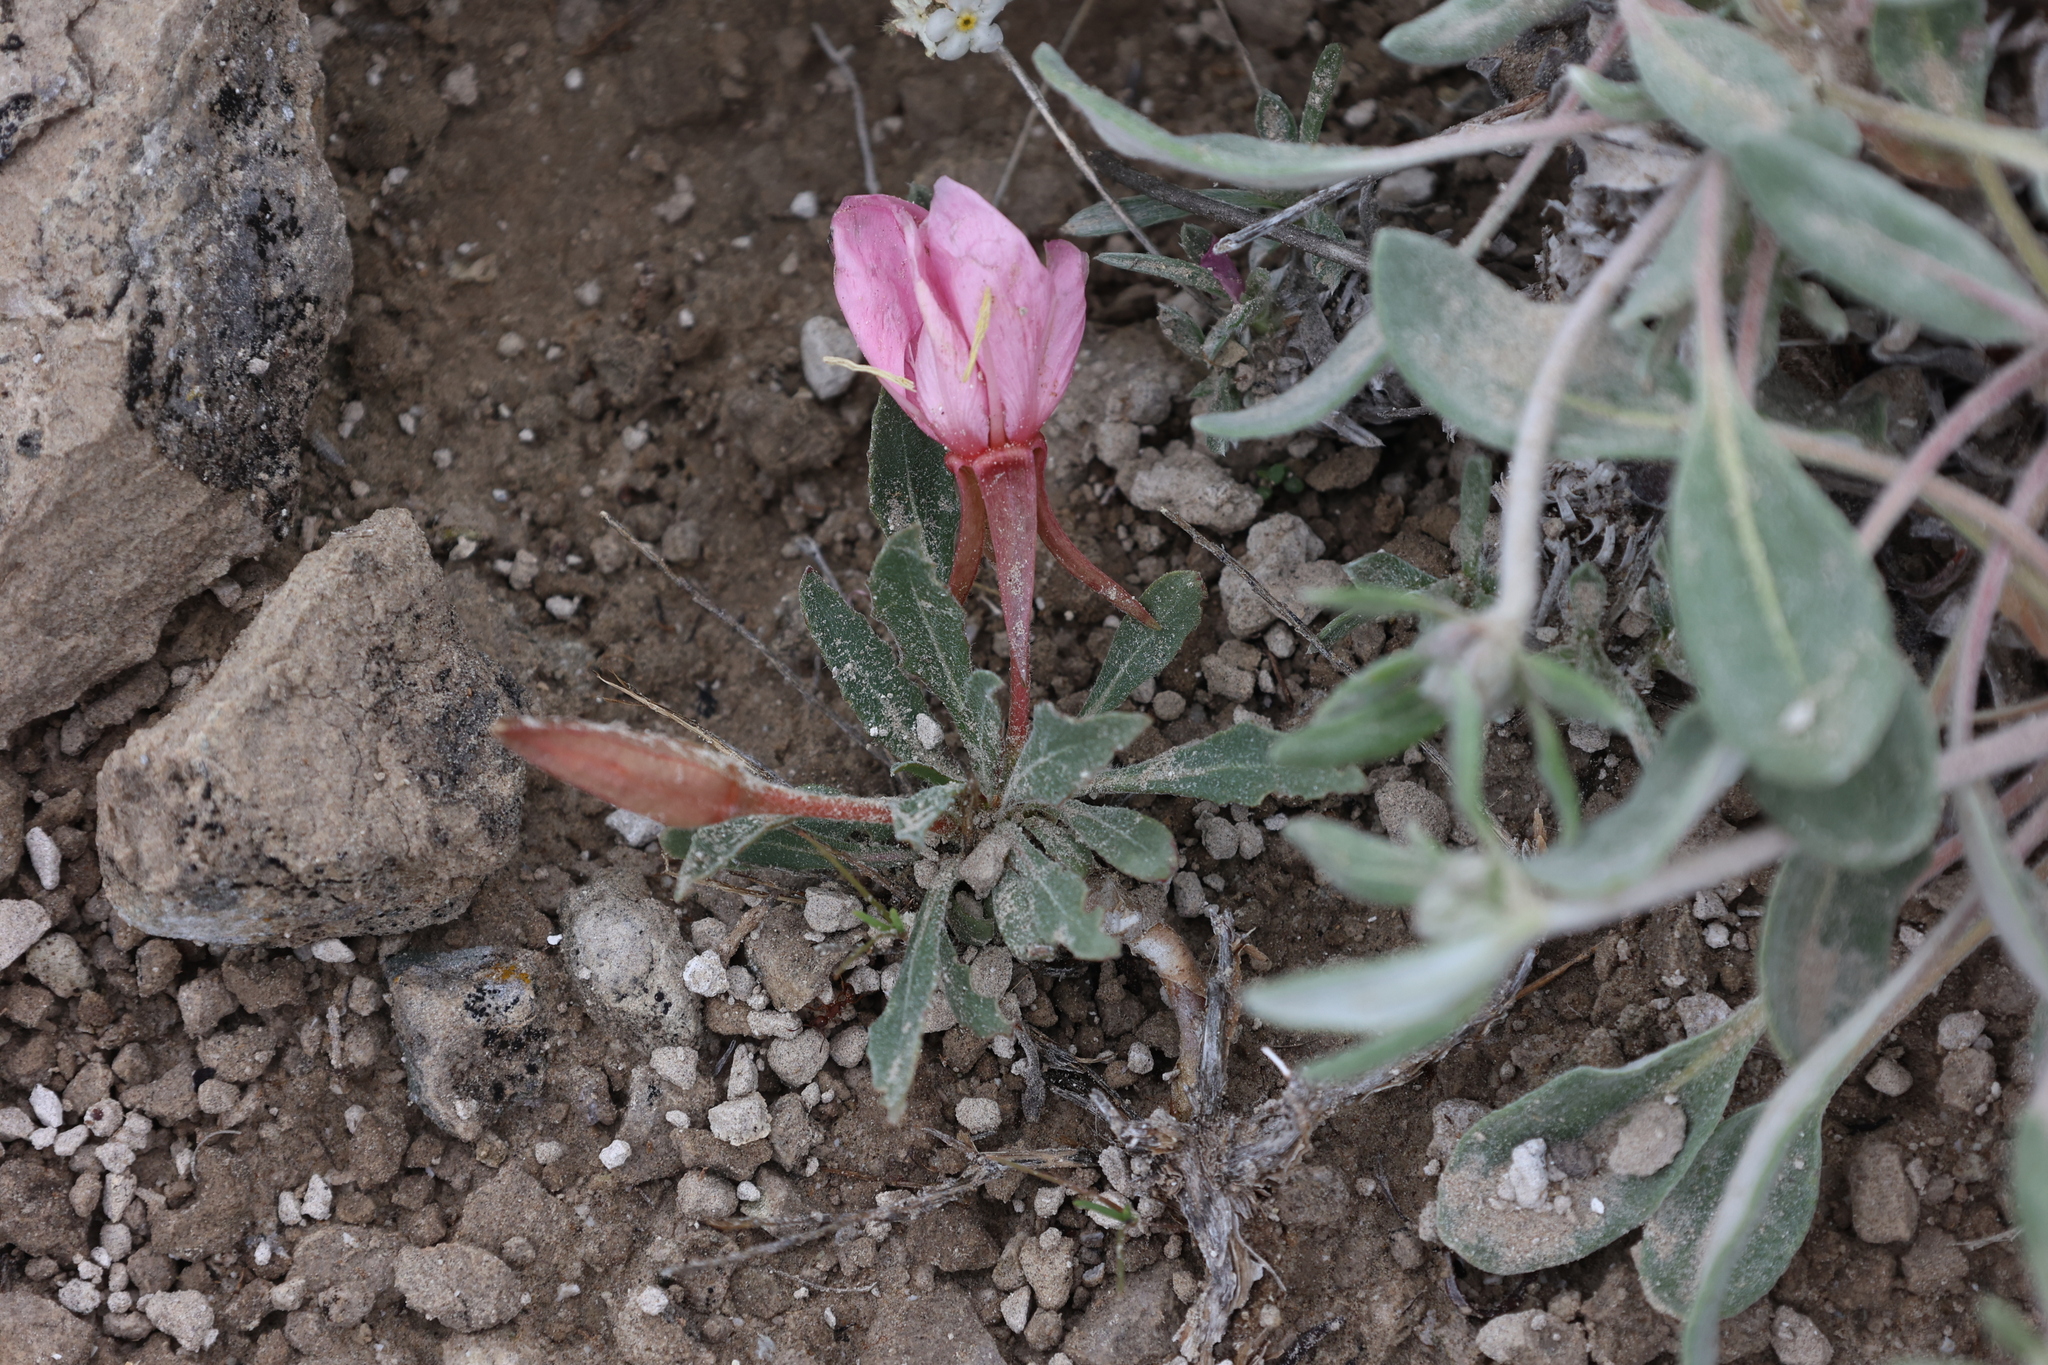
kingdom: Plantae
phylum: Tracheophyta
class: Magnoliopsida
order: Myrtales
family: Onagraceae
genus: Oenothera
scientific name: Oenothera cespitosa
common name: Tufted evening-primrose
